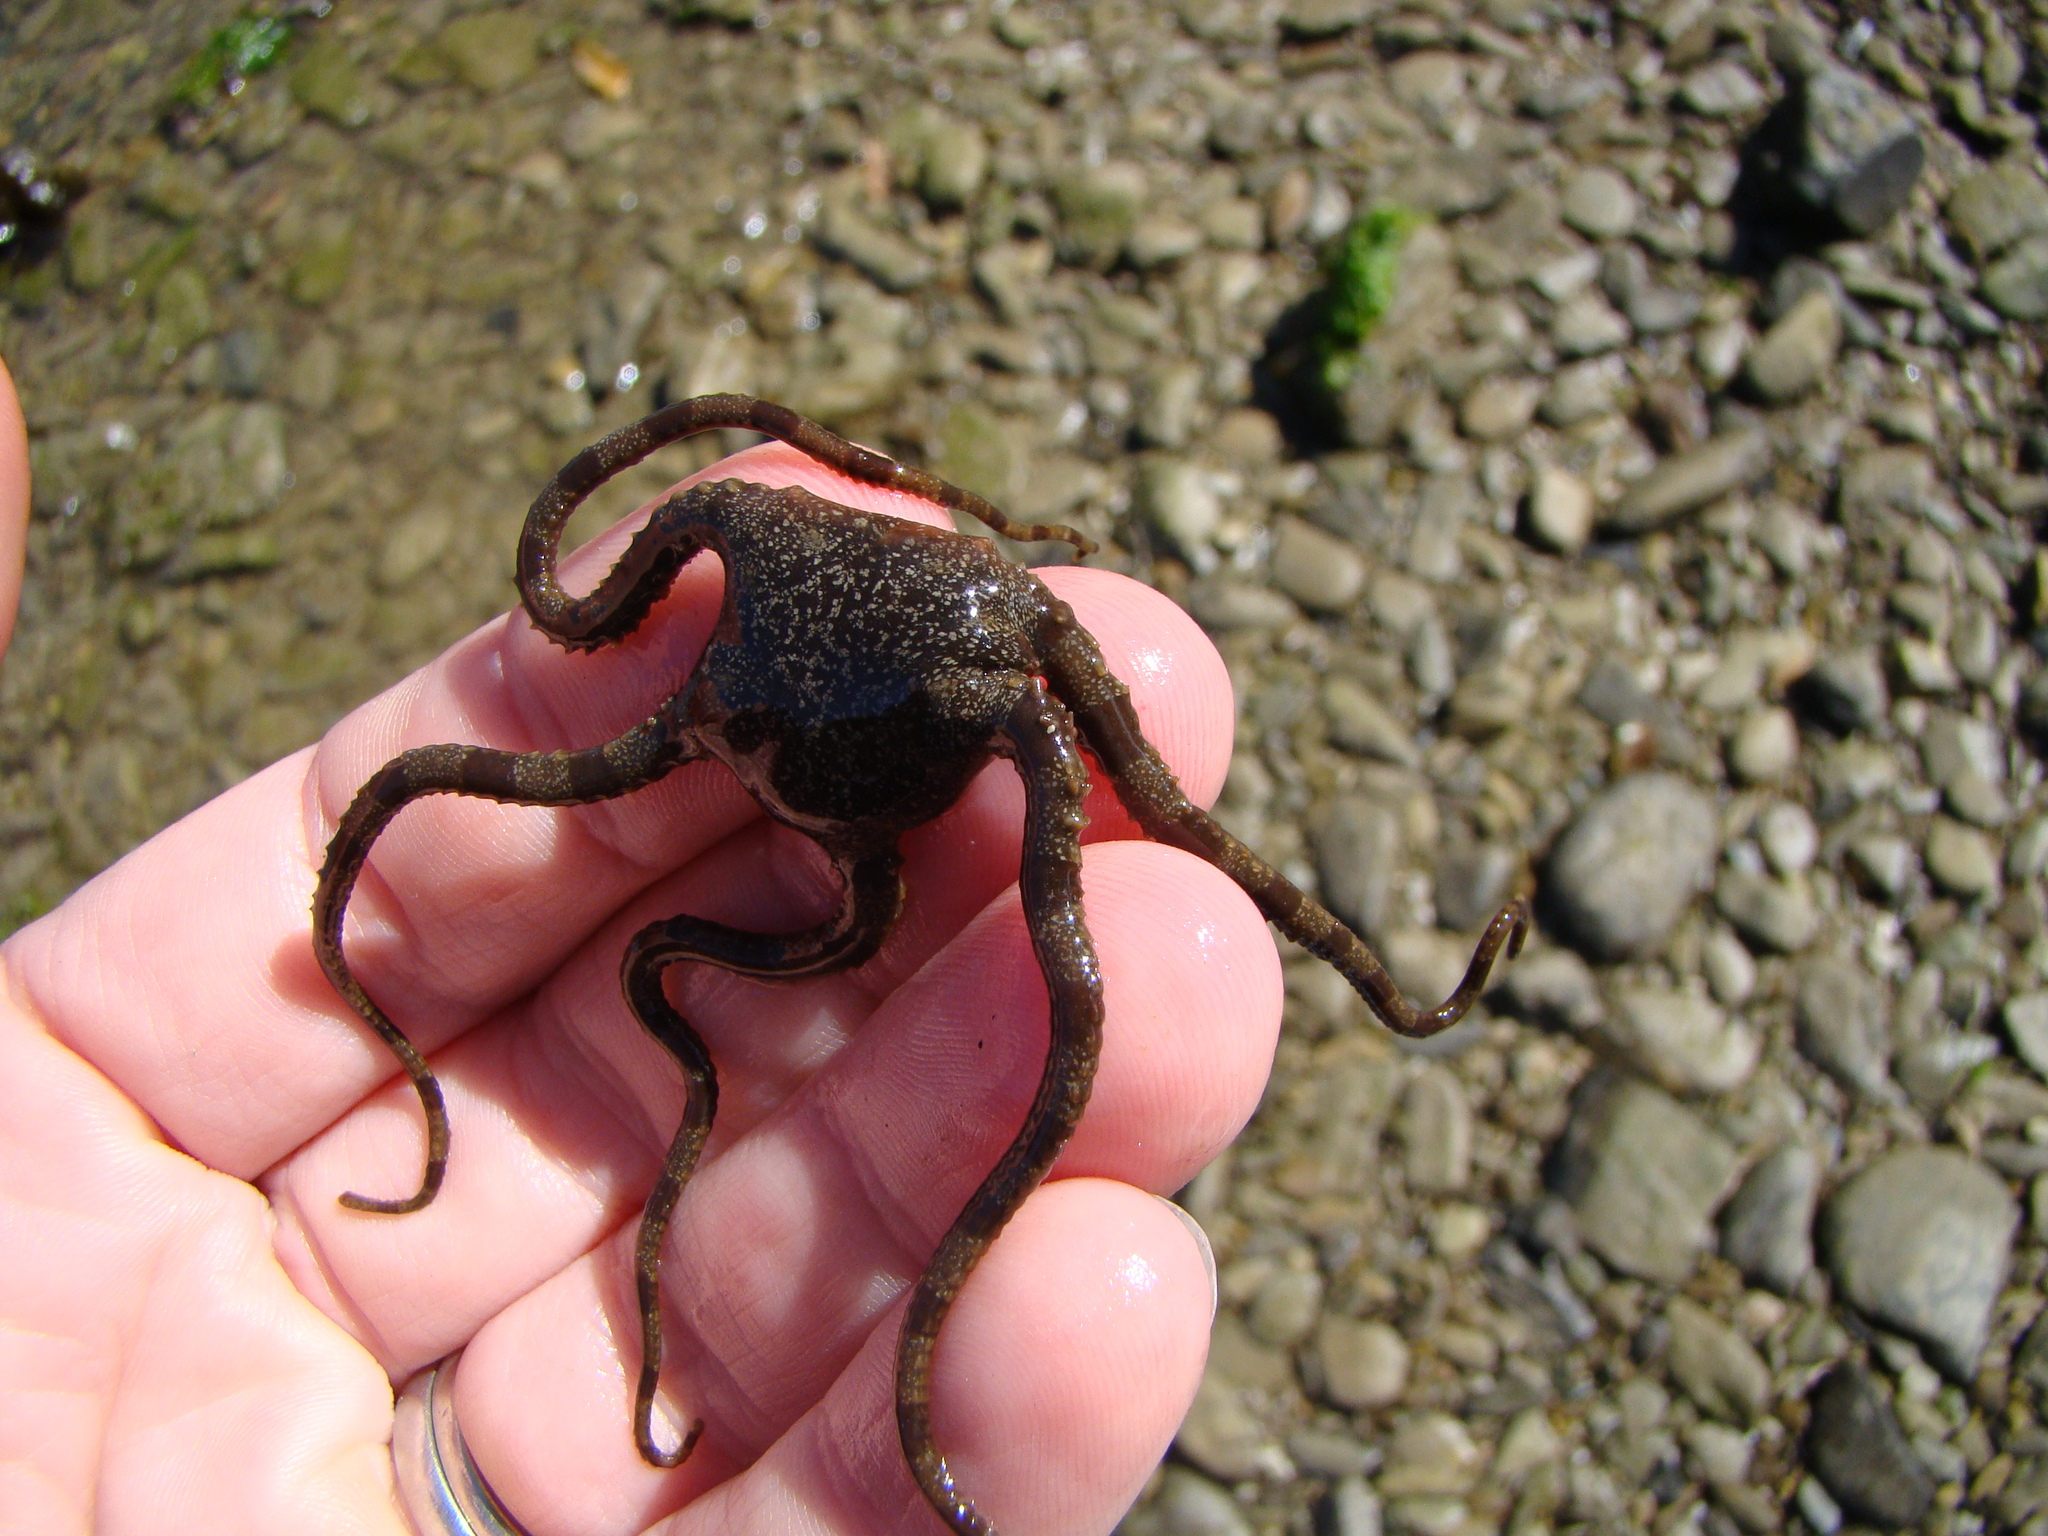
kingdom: Animalia
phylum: Echinodermata
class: Ophiuroidea
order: Ophiacanthida
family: Ophiomyxidae
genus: Ophiomyxa
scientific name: Ophiomyxa brevirima
